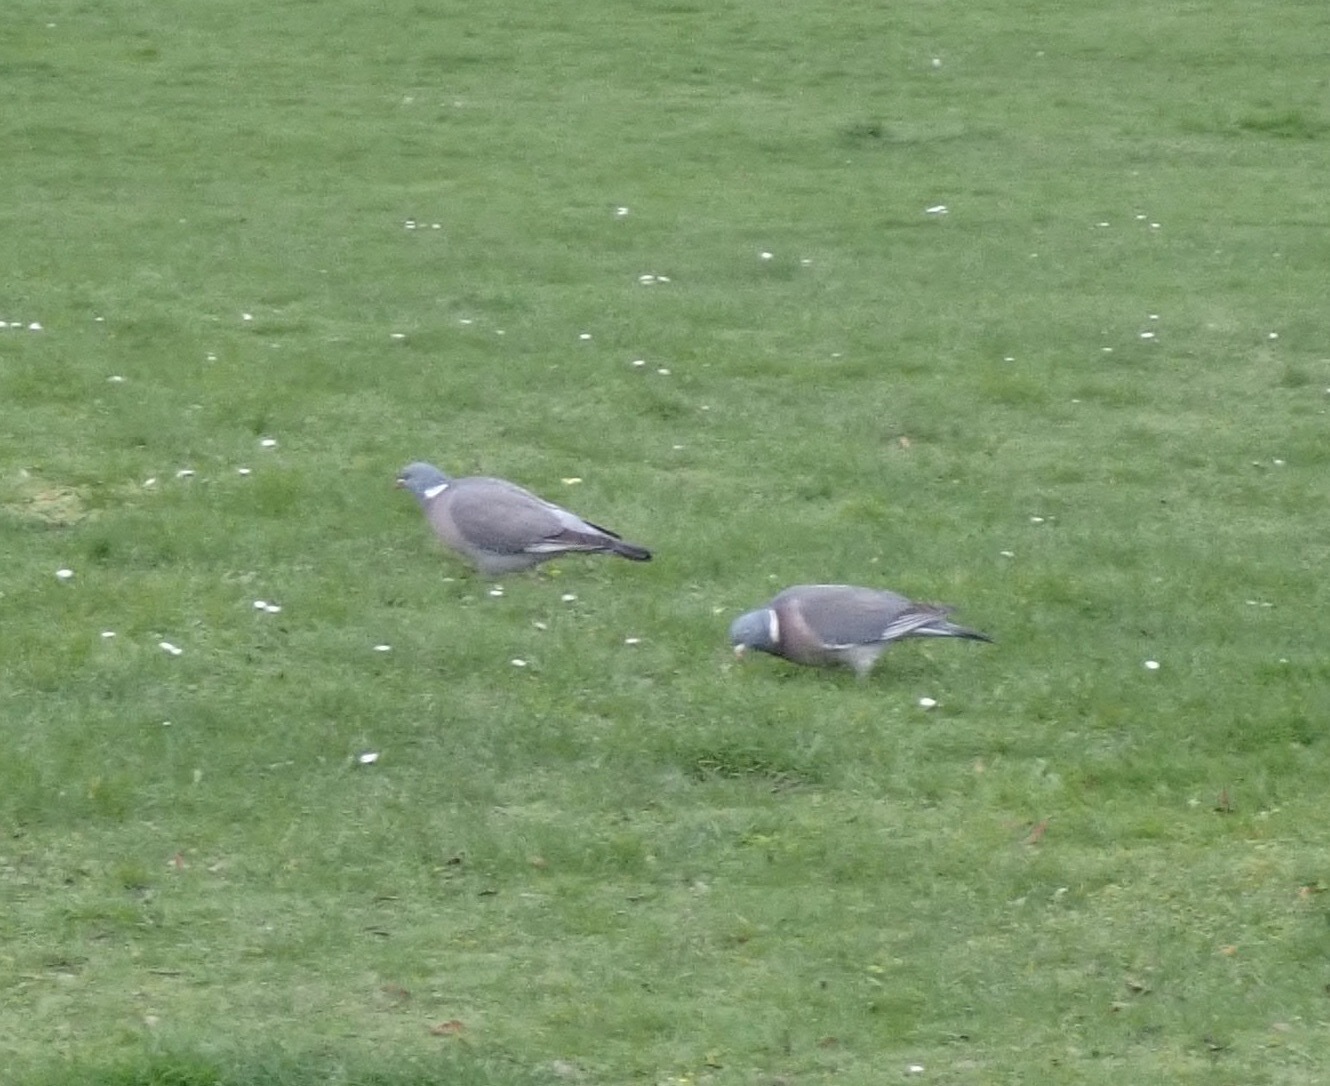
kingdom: Animalia
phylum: Chordata
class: Aves
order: Columbiformes
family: Columbidae
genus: Columba
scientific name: Columba palumbus
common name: Common wood pigeon
